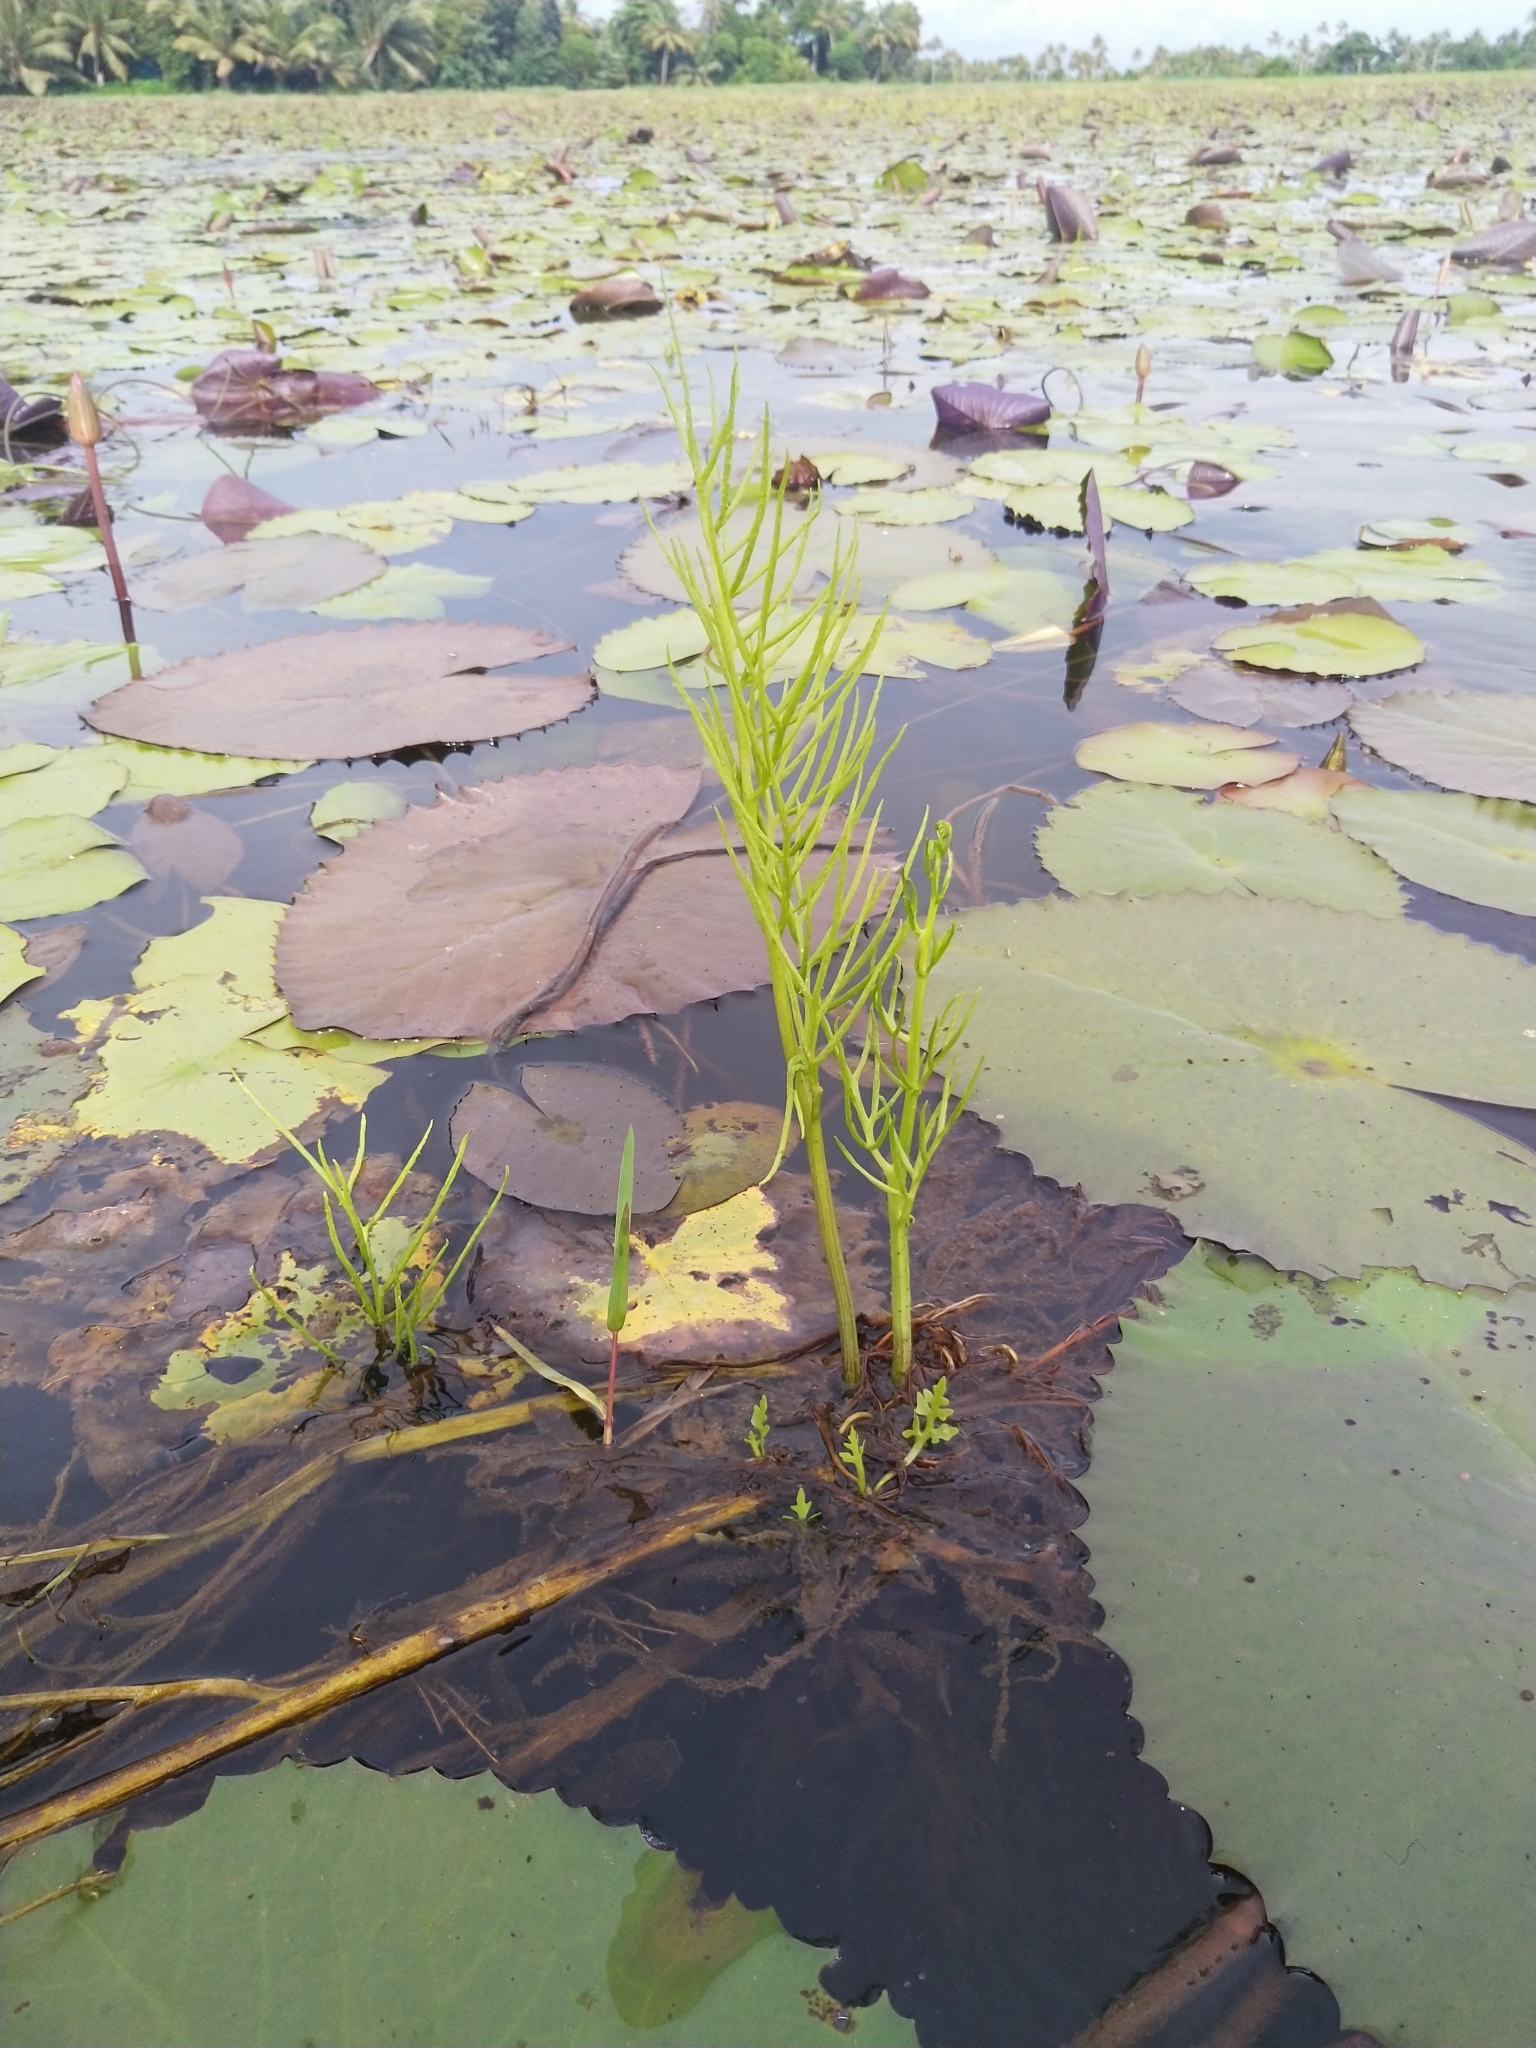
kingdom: Plantae
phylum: Tracheophyta
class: Polypodiopsida
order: Polypodiales
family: Pteridaceae
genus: Ceratopteris
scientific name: Ceratopteris thalictroides
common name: Water fern
